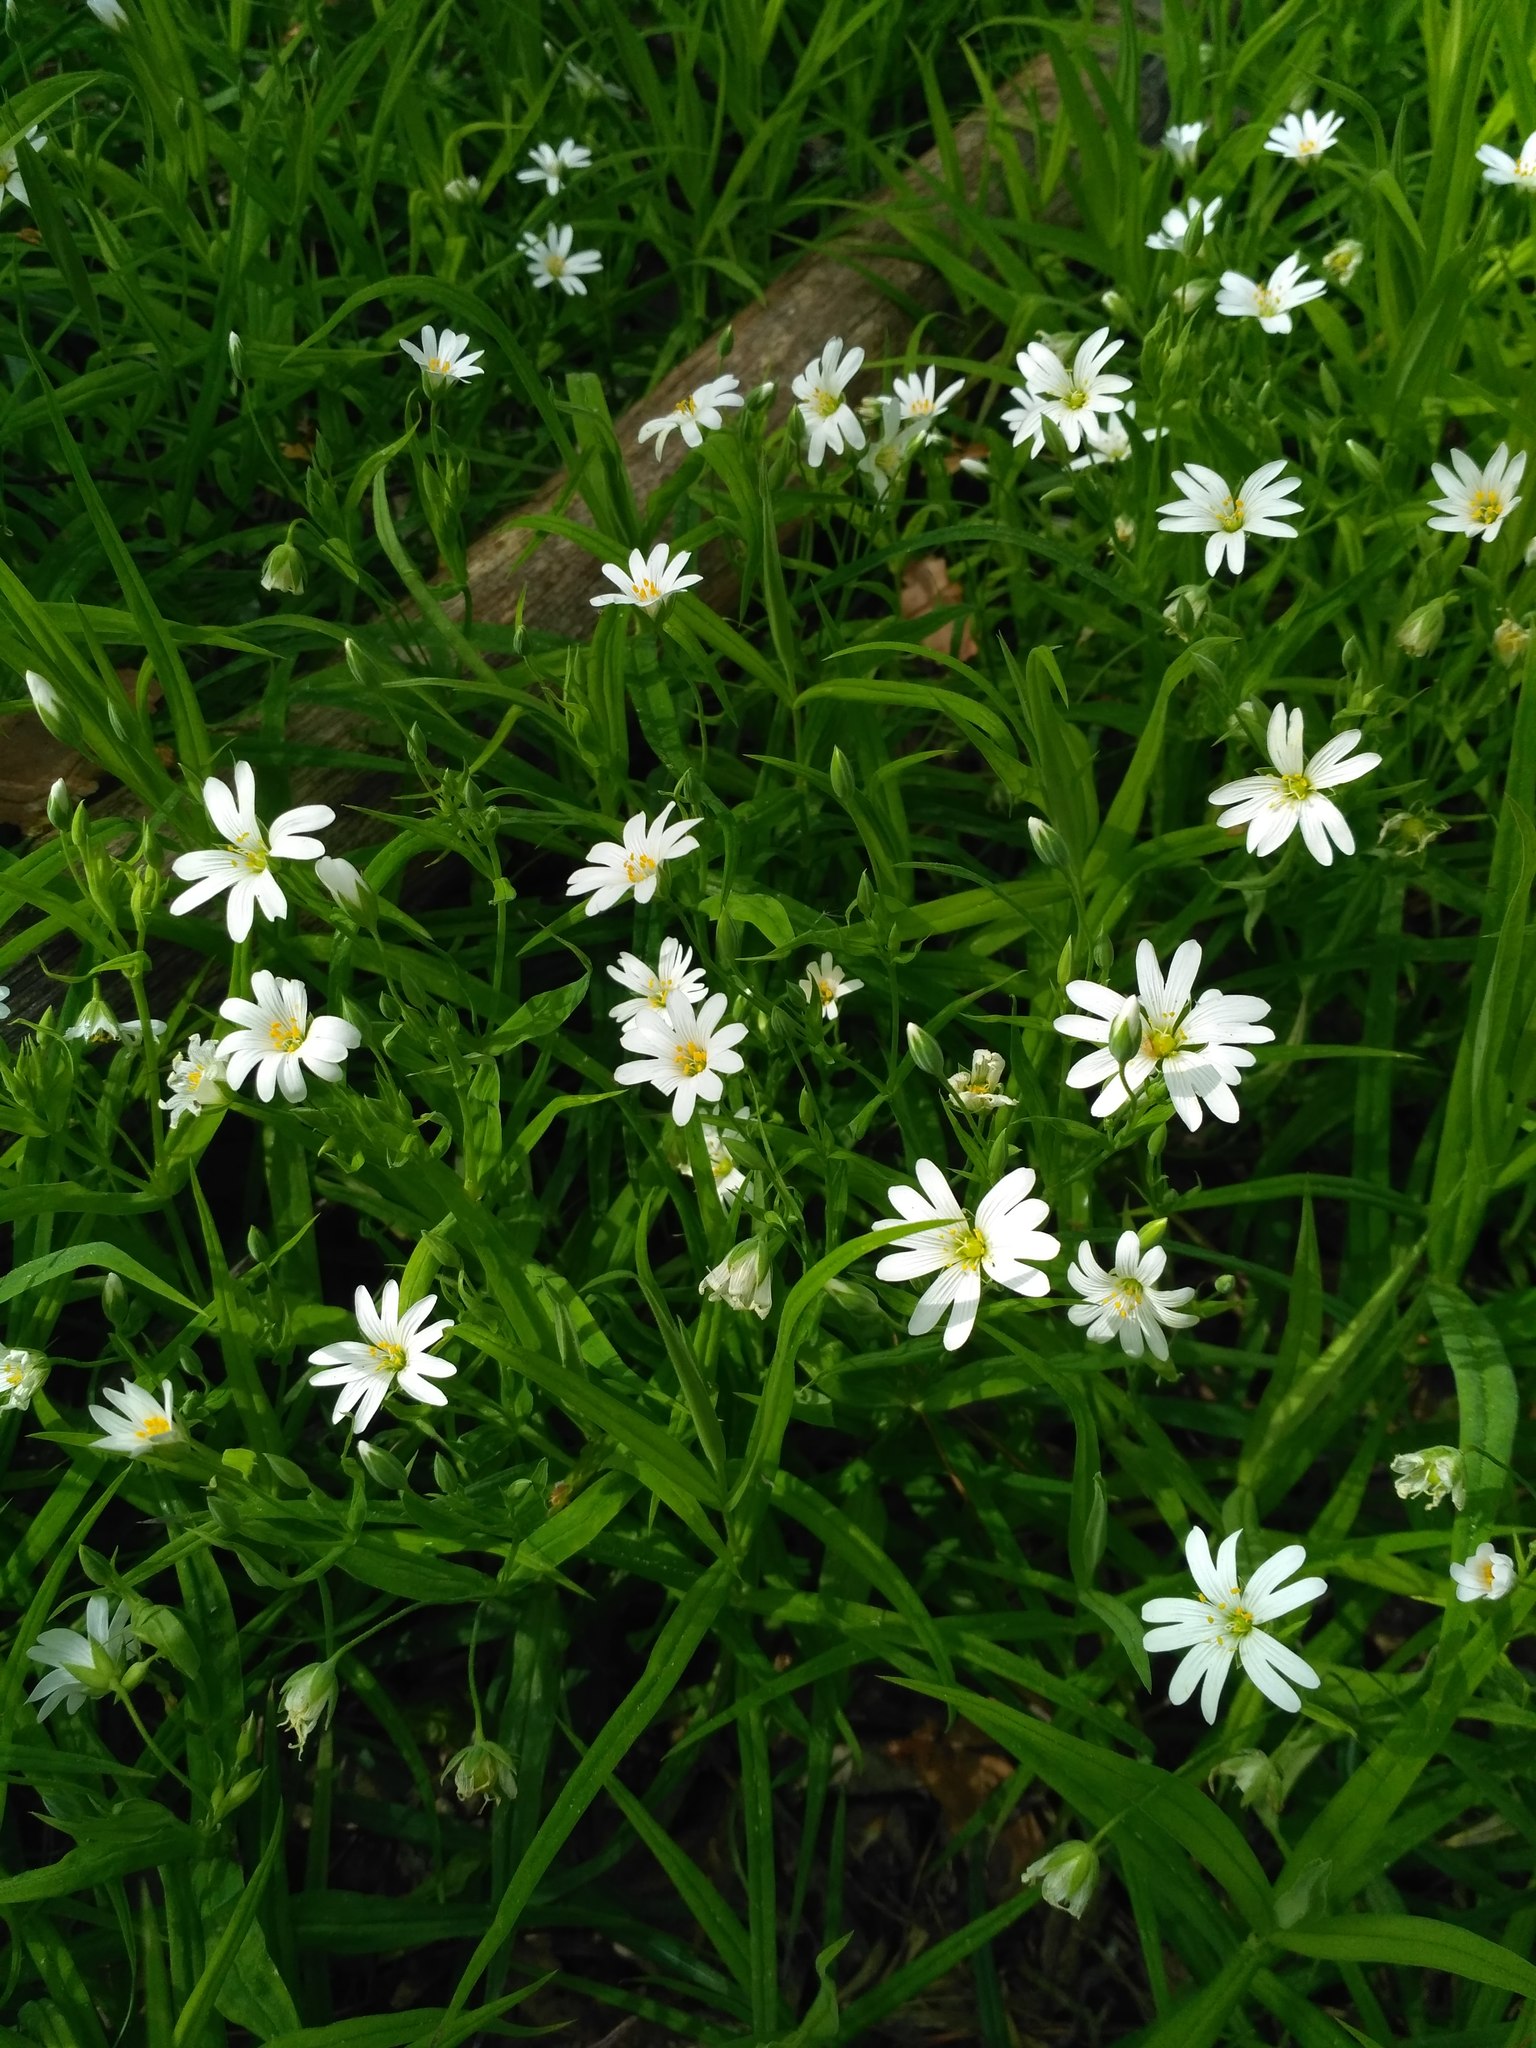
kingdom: Plantae
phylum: Tracheophyta
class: Magnoliopsida
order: Caryophyllales
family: Caryophyllaceae
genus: Rabelera
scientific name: Rabelera holostea
